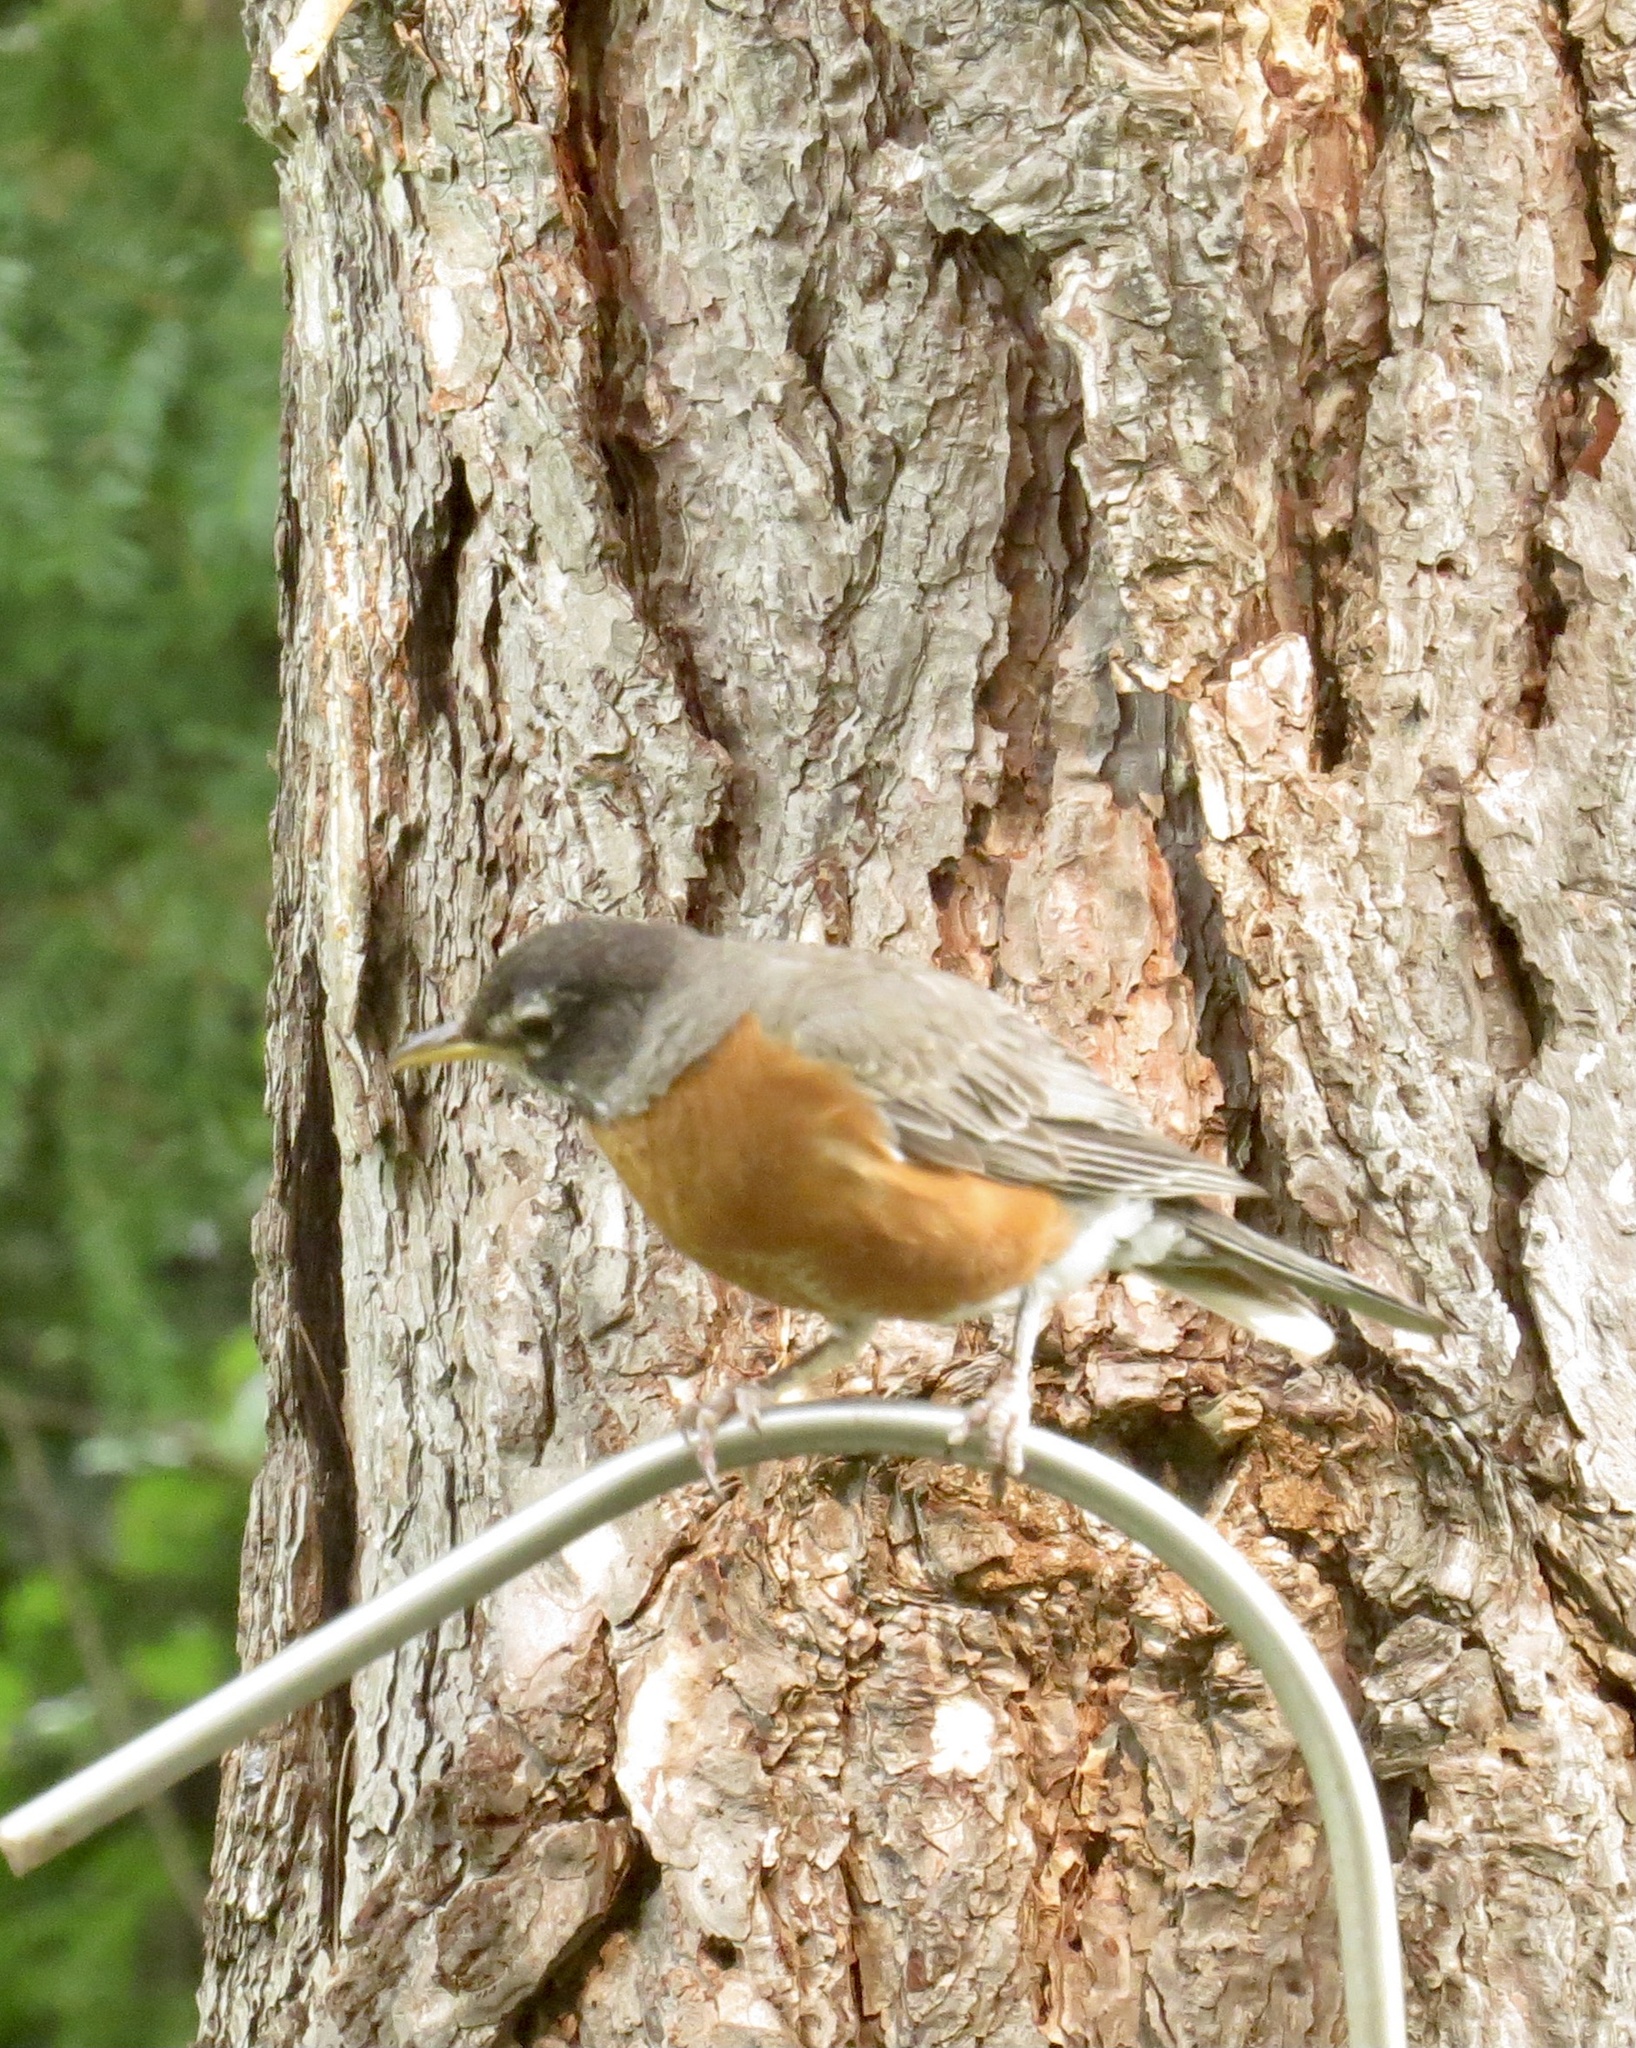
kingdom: Animalia
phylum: Chordata
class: Aves
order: Passeriformes
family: Turdidae
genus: Turdus
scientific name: Turdus migratorius
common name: American robin
